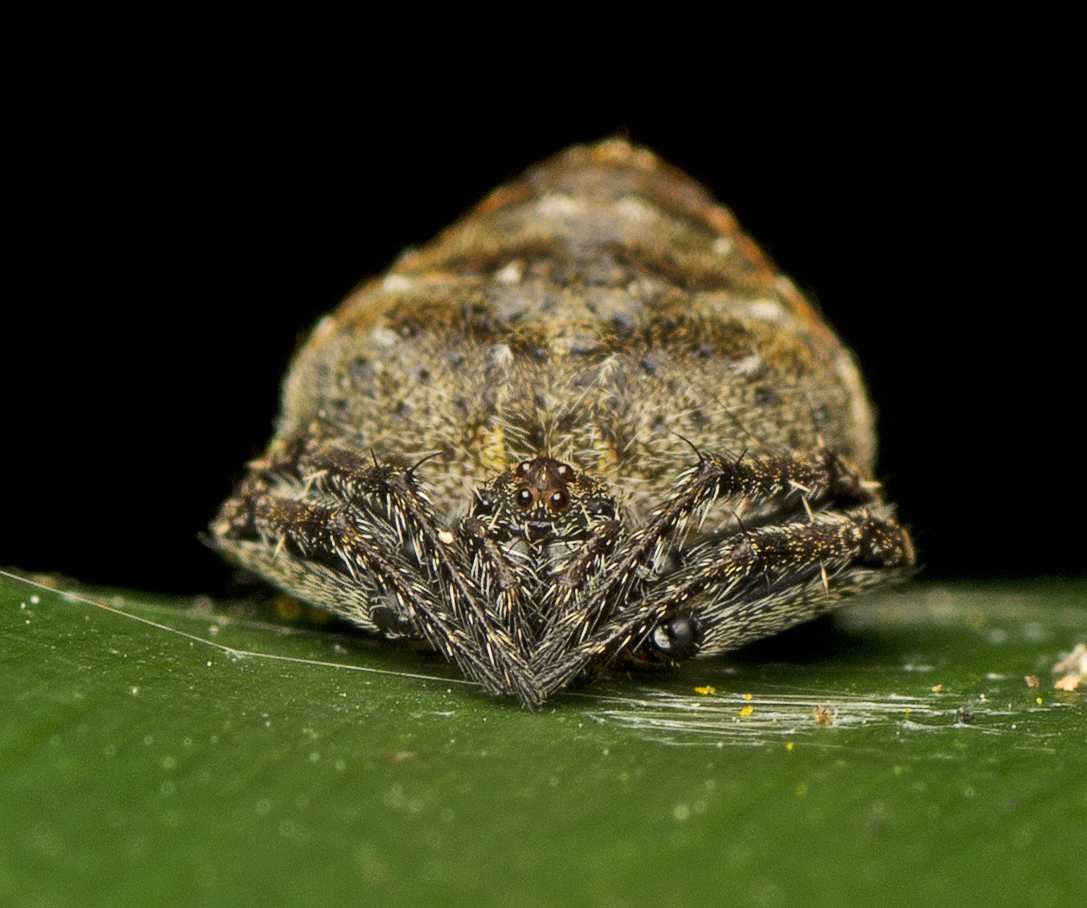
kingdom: Animalia
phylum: Arthropoda
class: Arachnida
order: Araneae
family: Araneidae
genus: Araneus
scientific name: Araneus acuminatus
